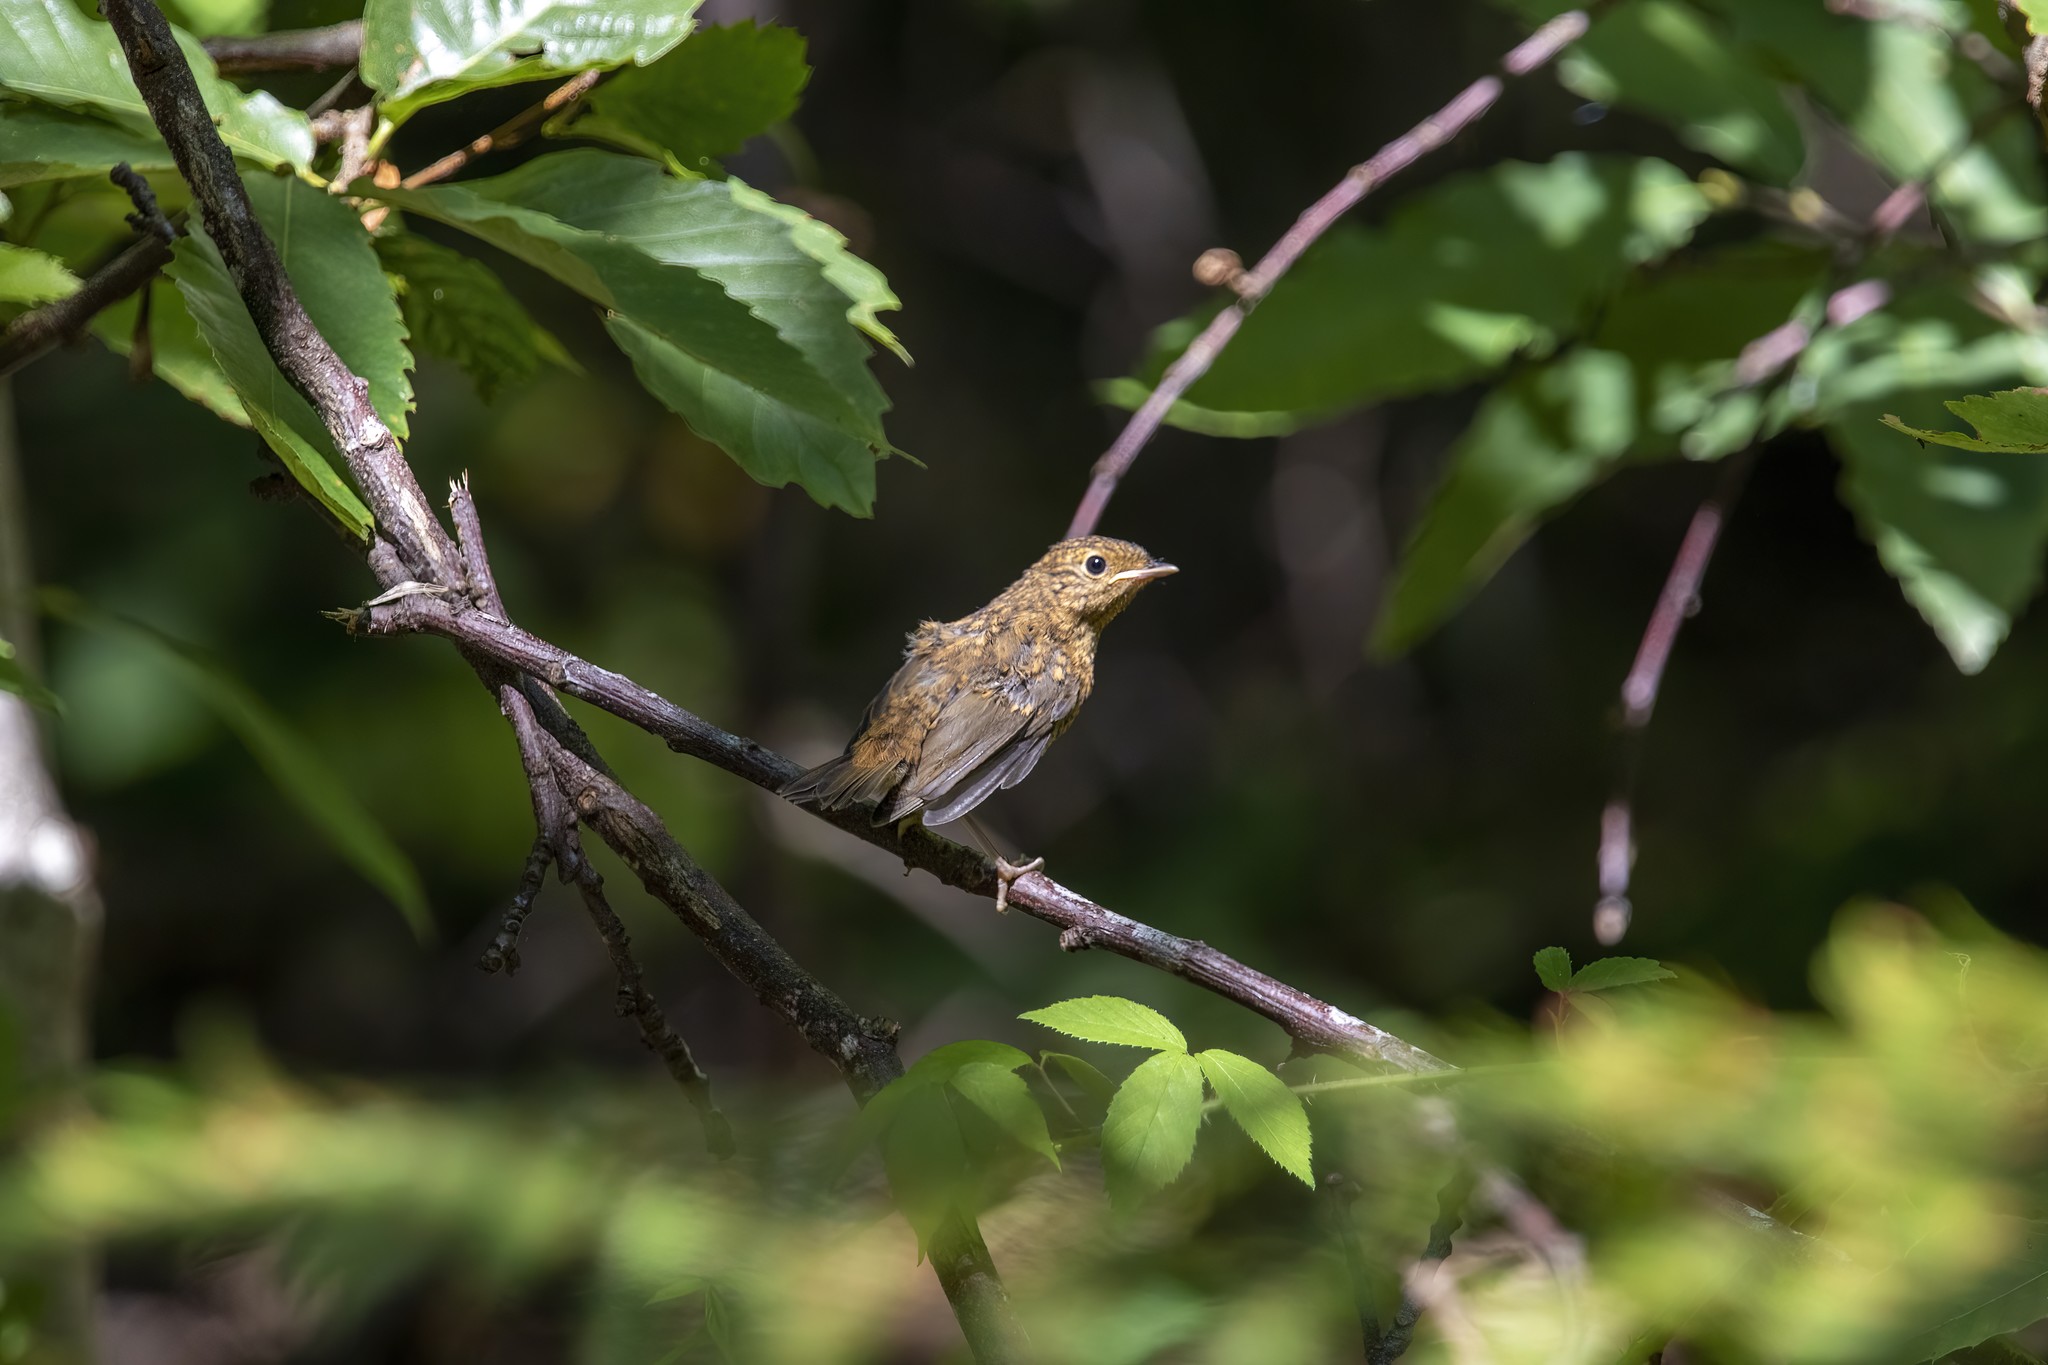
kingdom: Animalia
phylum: Chordata
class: Aves
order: Passeriformes
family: Muscicapidae
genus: Erithacus
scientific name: Erithacus rubecula
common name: European robin
